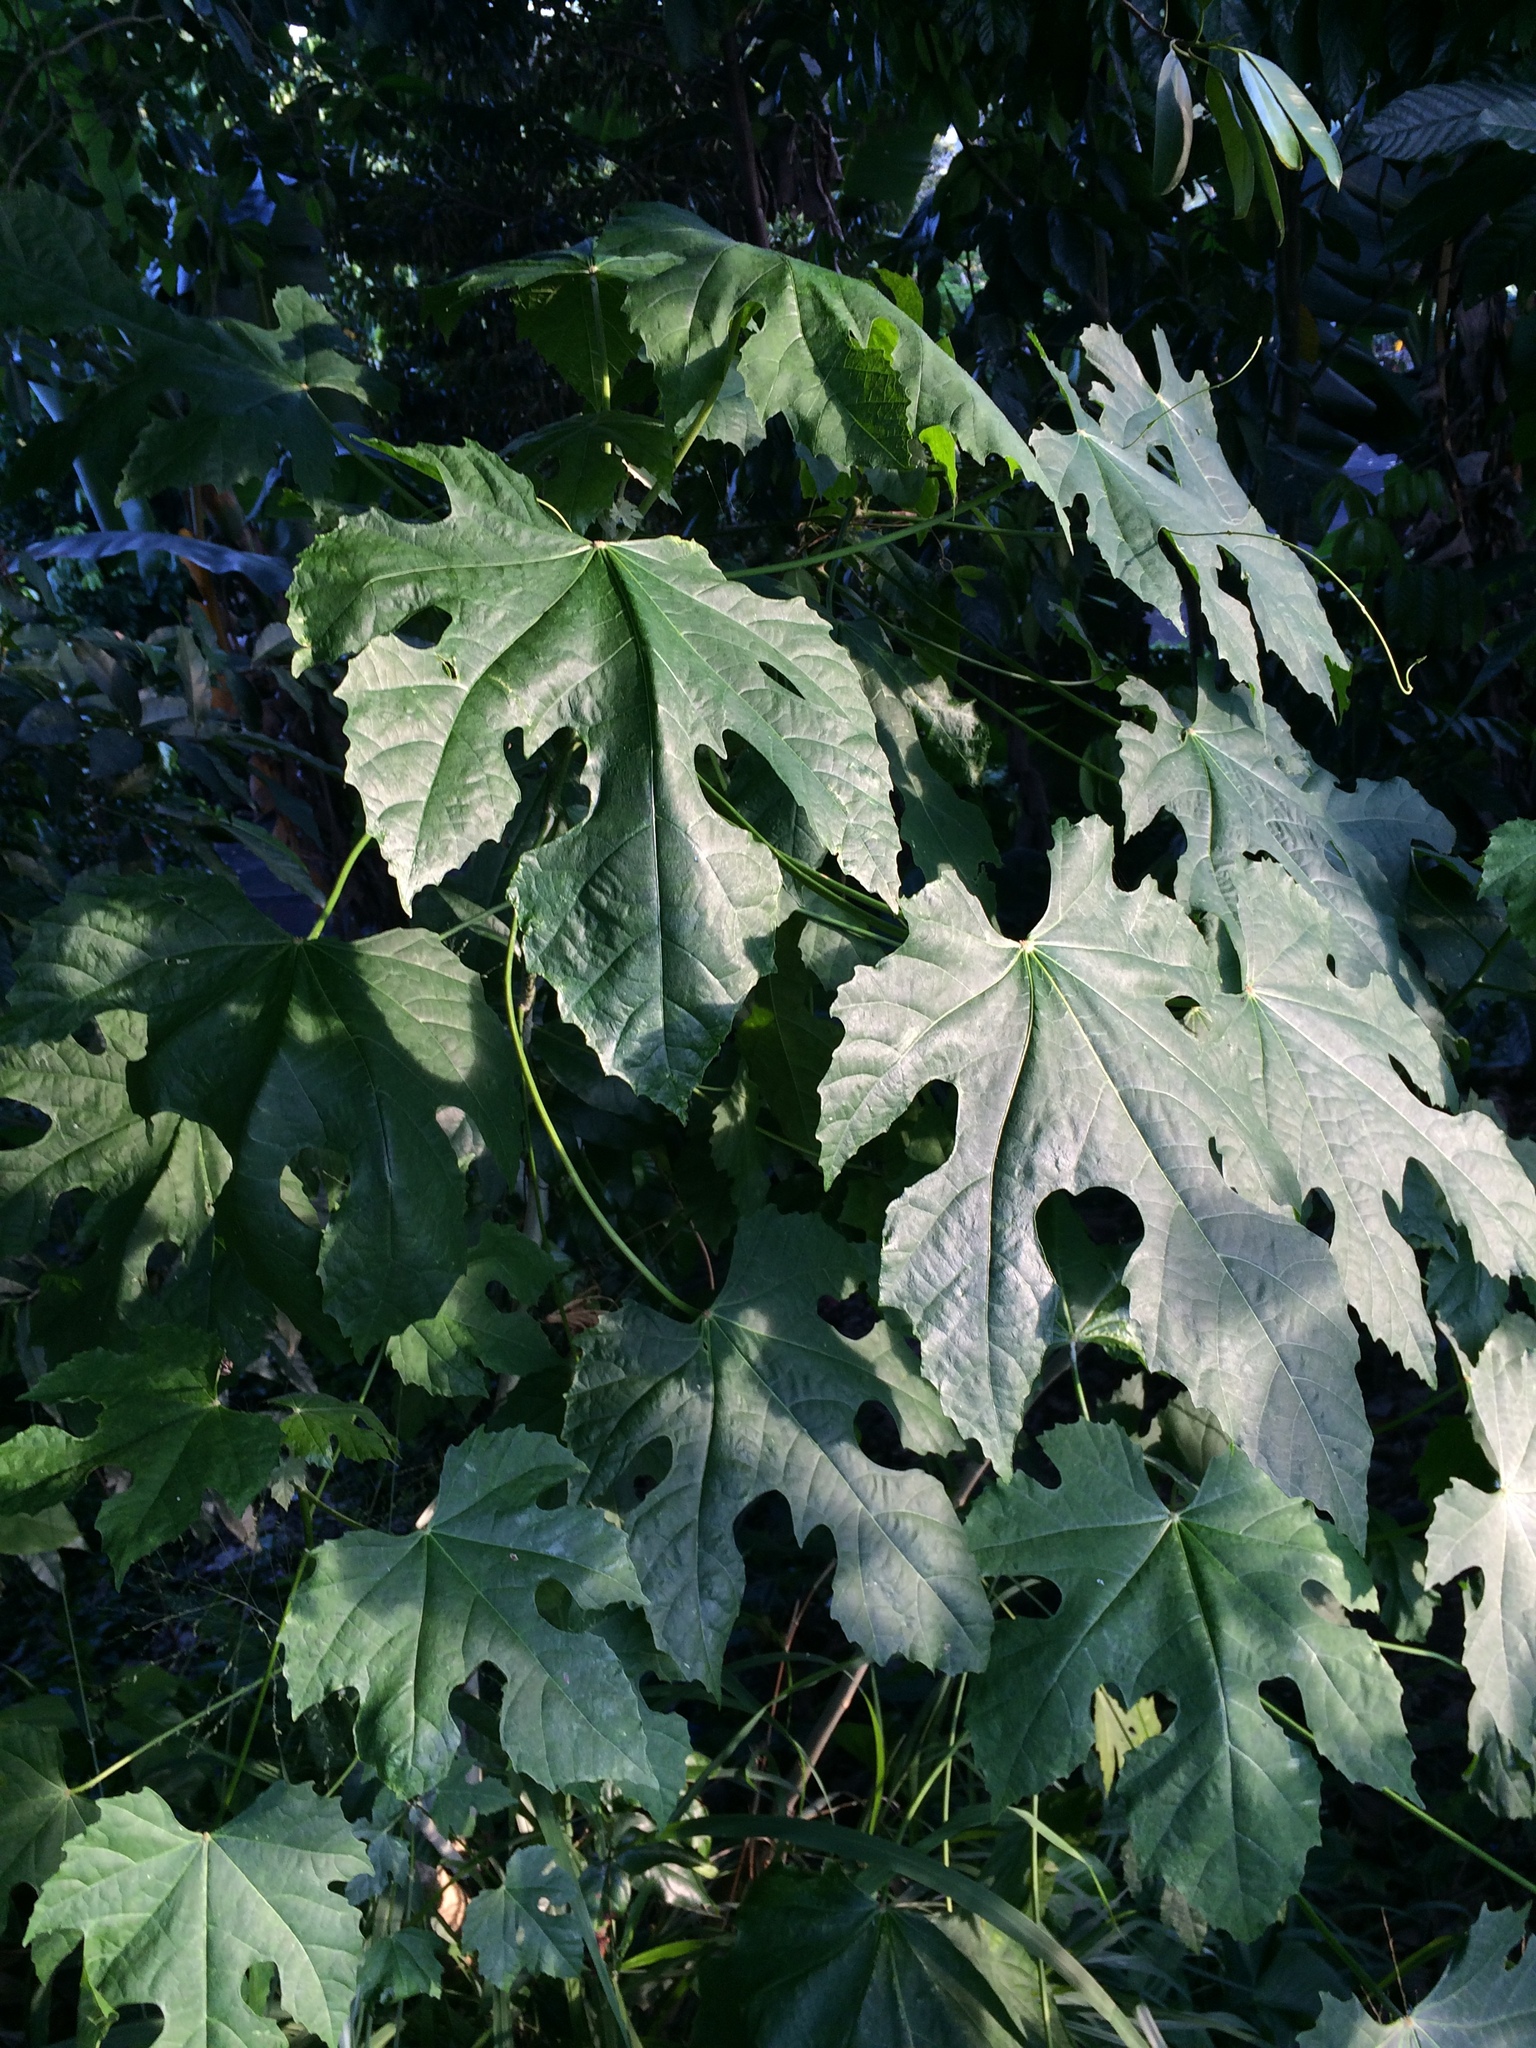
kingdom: Plantae
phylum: Tracheophyta
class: Magnoliopsida
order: Malpighiales
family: Euphorbiaceae
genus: Melanolepis
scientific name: Melanolepis multiglandulosa
